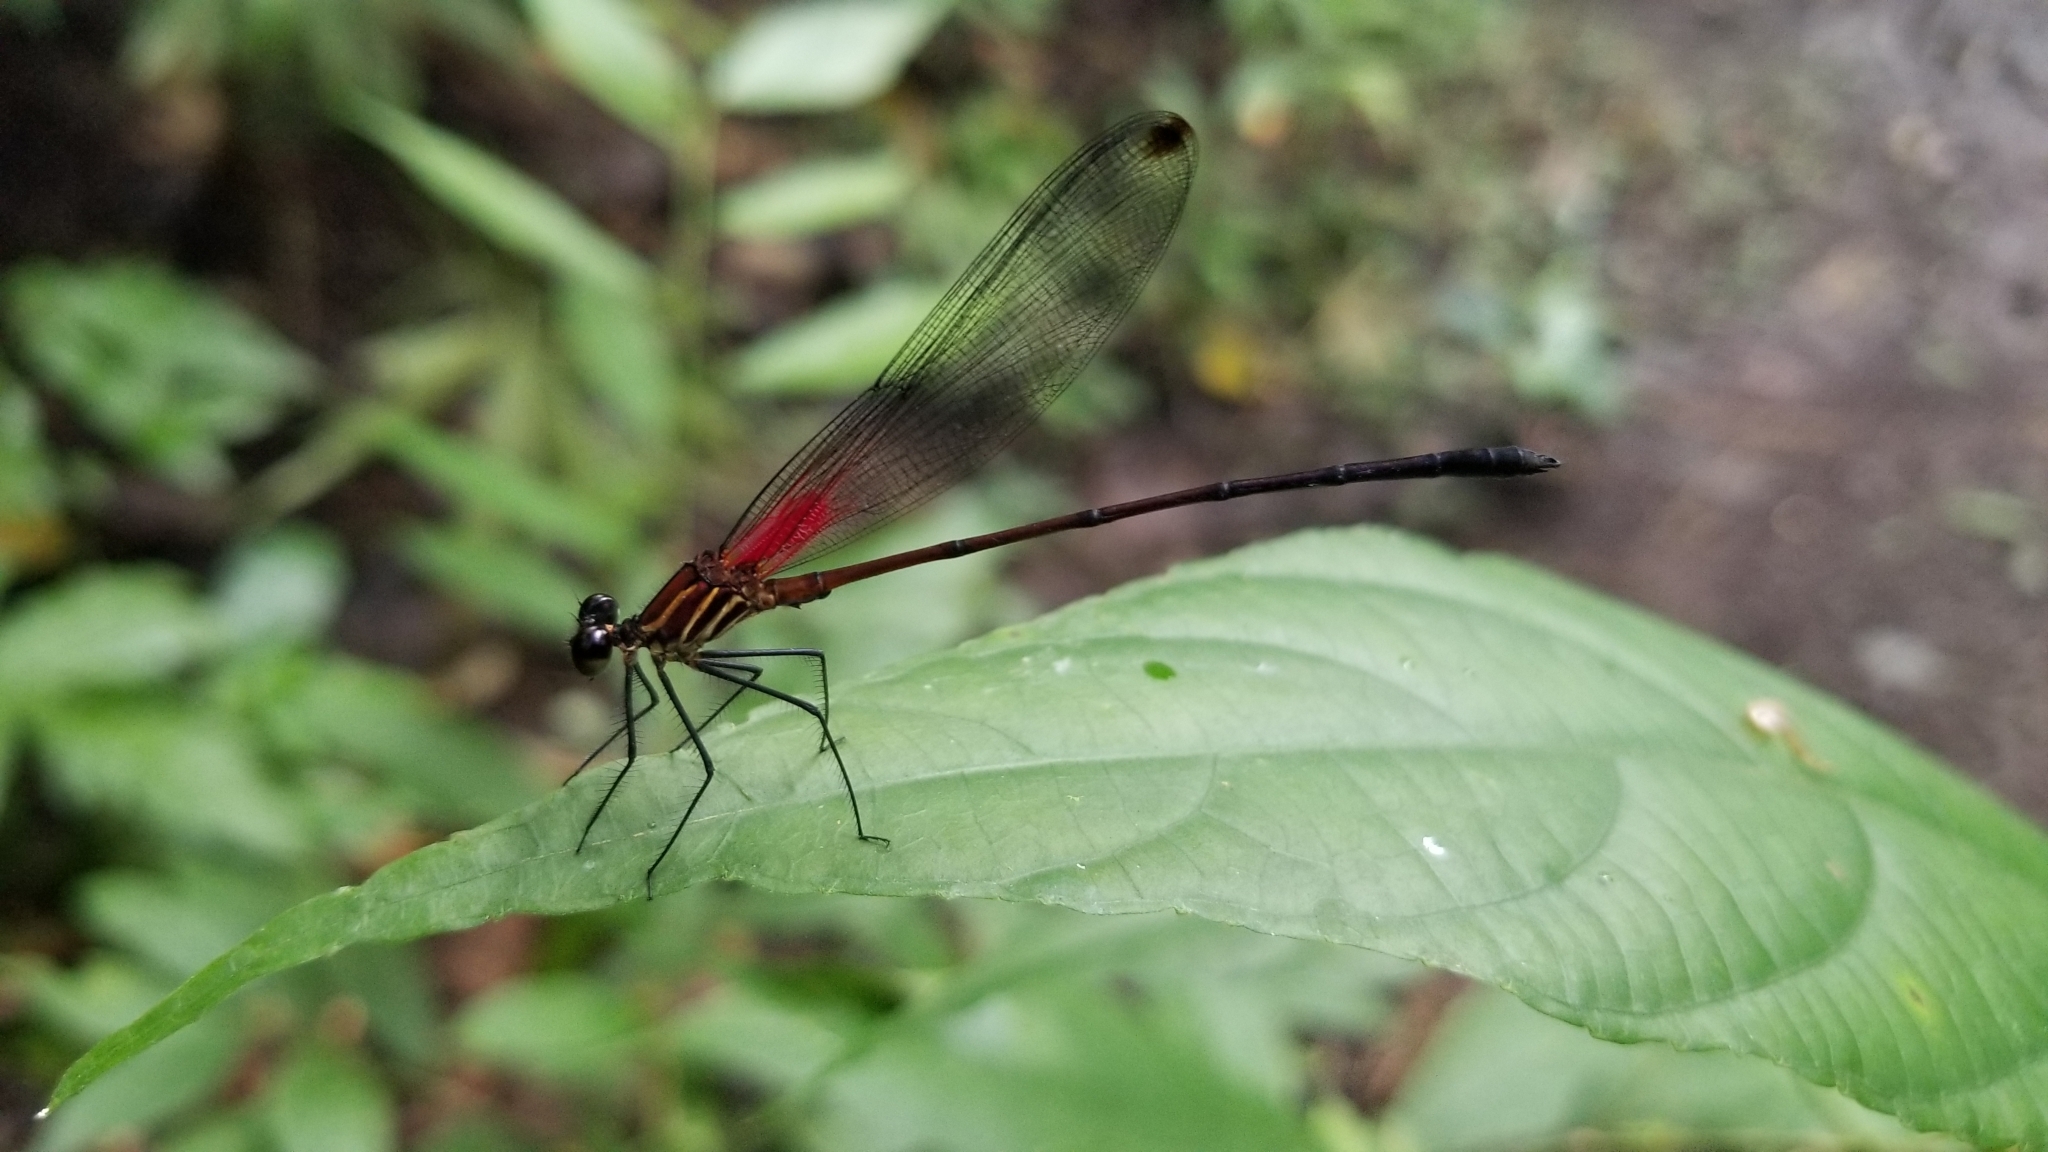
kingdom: Animalia
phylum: Arthropoda
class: Insecta
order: Odonata
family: Calopterygidae
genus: Hetaerina
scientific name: Hetaerina fuscoguttata
